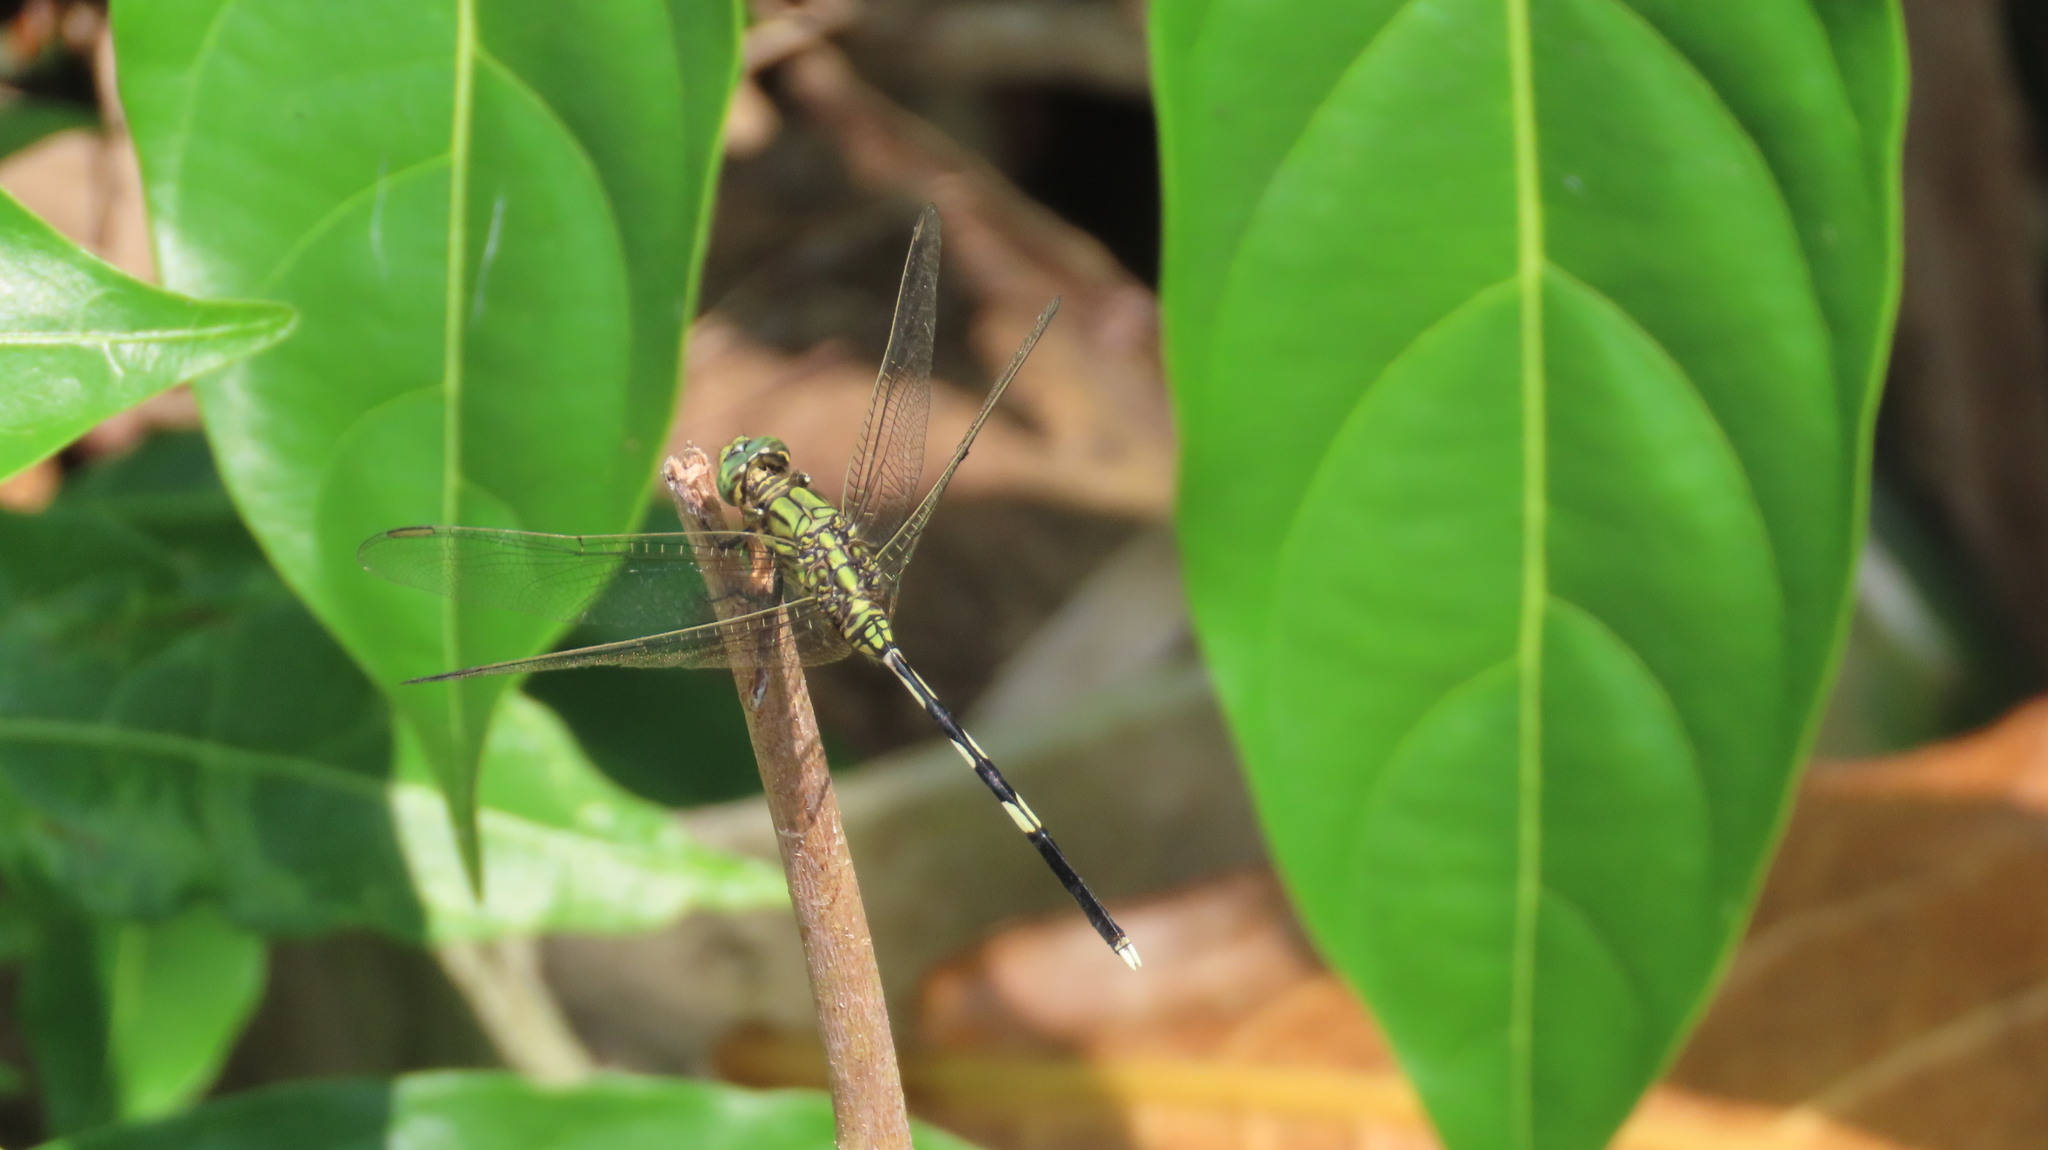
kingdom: Animalia
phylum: Arthropoda
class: Insecta
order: Odonata
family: Libellulidae
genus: Orthetrum
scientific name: Orthetrum sabina
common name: Slender skimmer
